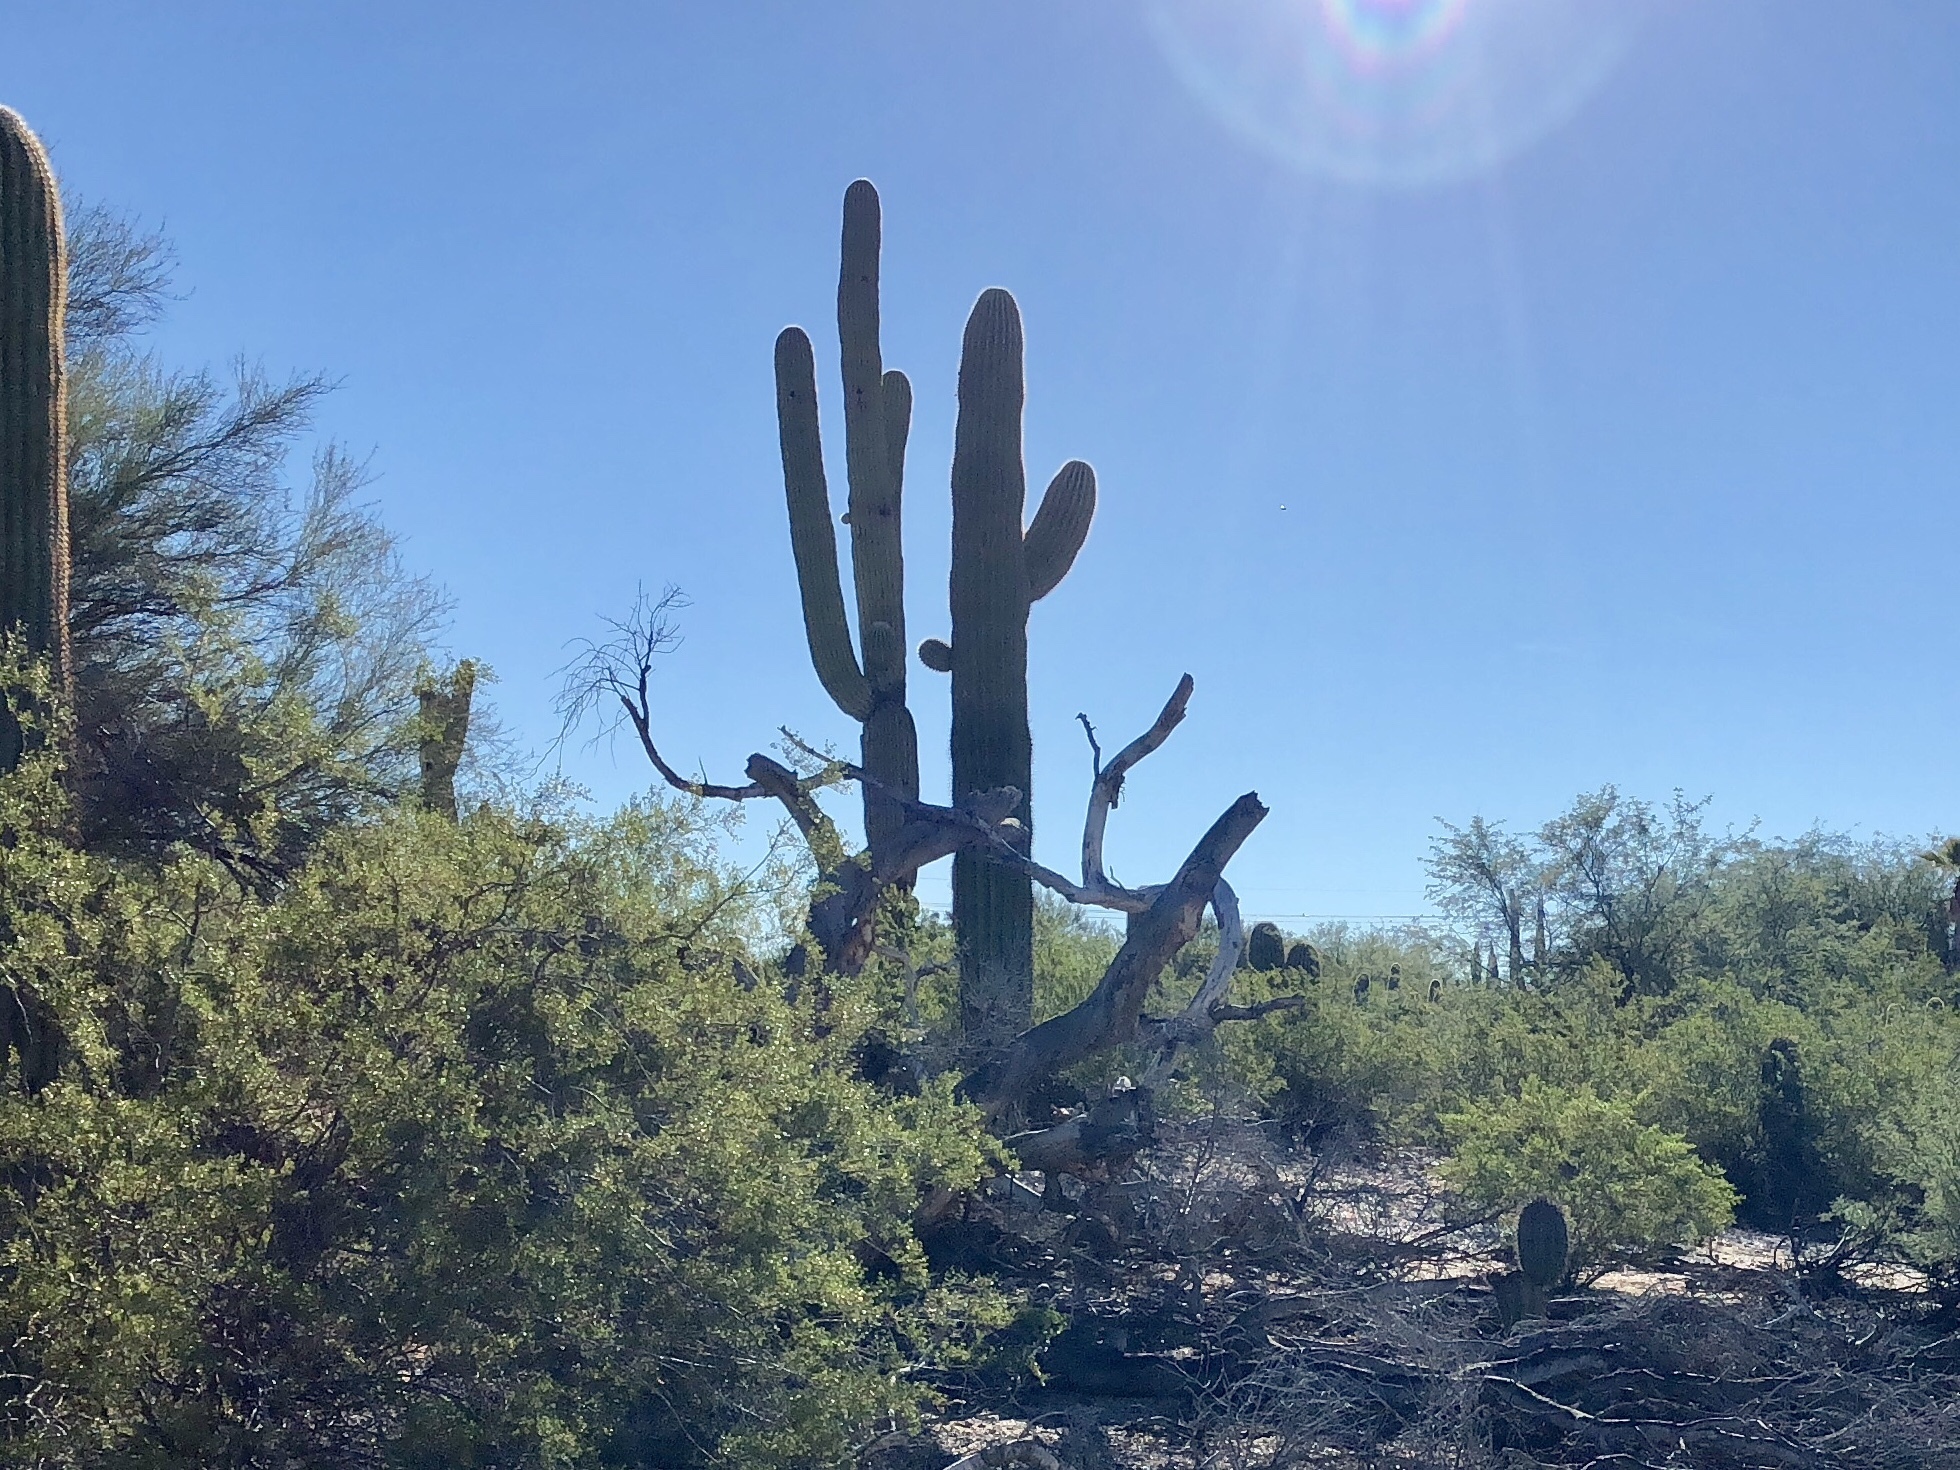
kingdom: Plantae
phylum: Tracheophyta
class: Magnoliopsida
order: Caryophyllales
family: Cactaceae
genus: Carnegiea
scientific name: Carnegiea gigantea
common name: Saguaro
